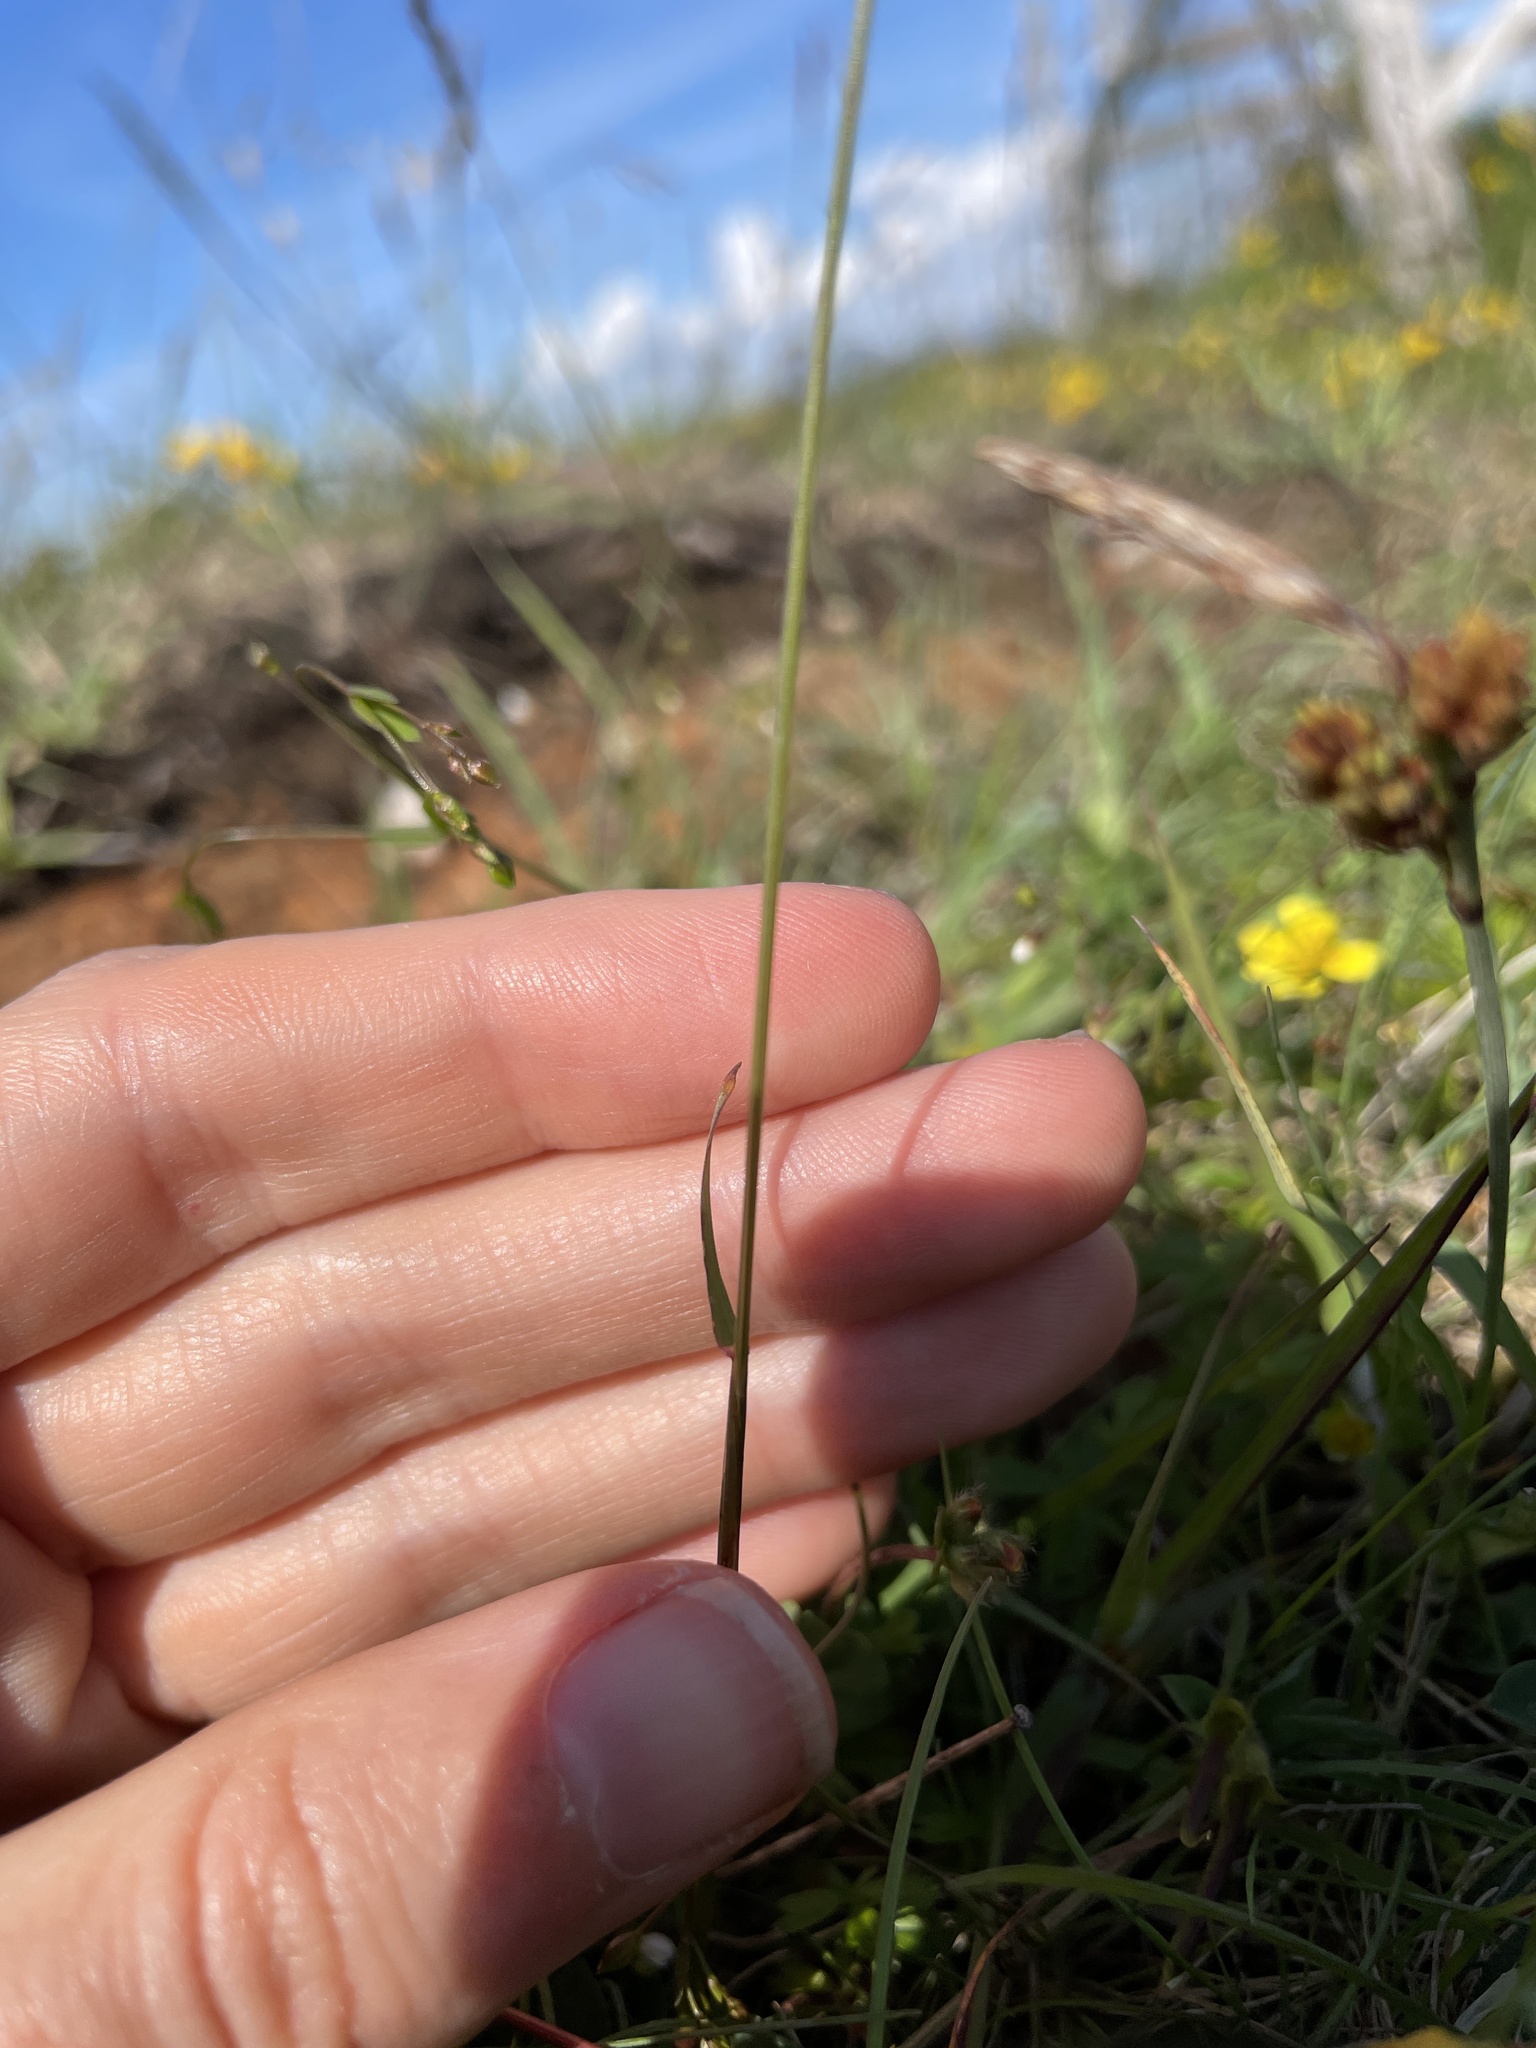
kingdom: Plantae
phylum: Tracheophyta
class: Liliopsida
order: Poales
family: Poaceae
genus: Anthoxanthum
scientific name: Anthoxanthum odoratum
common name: Sweet vernalgrass
